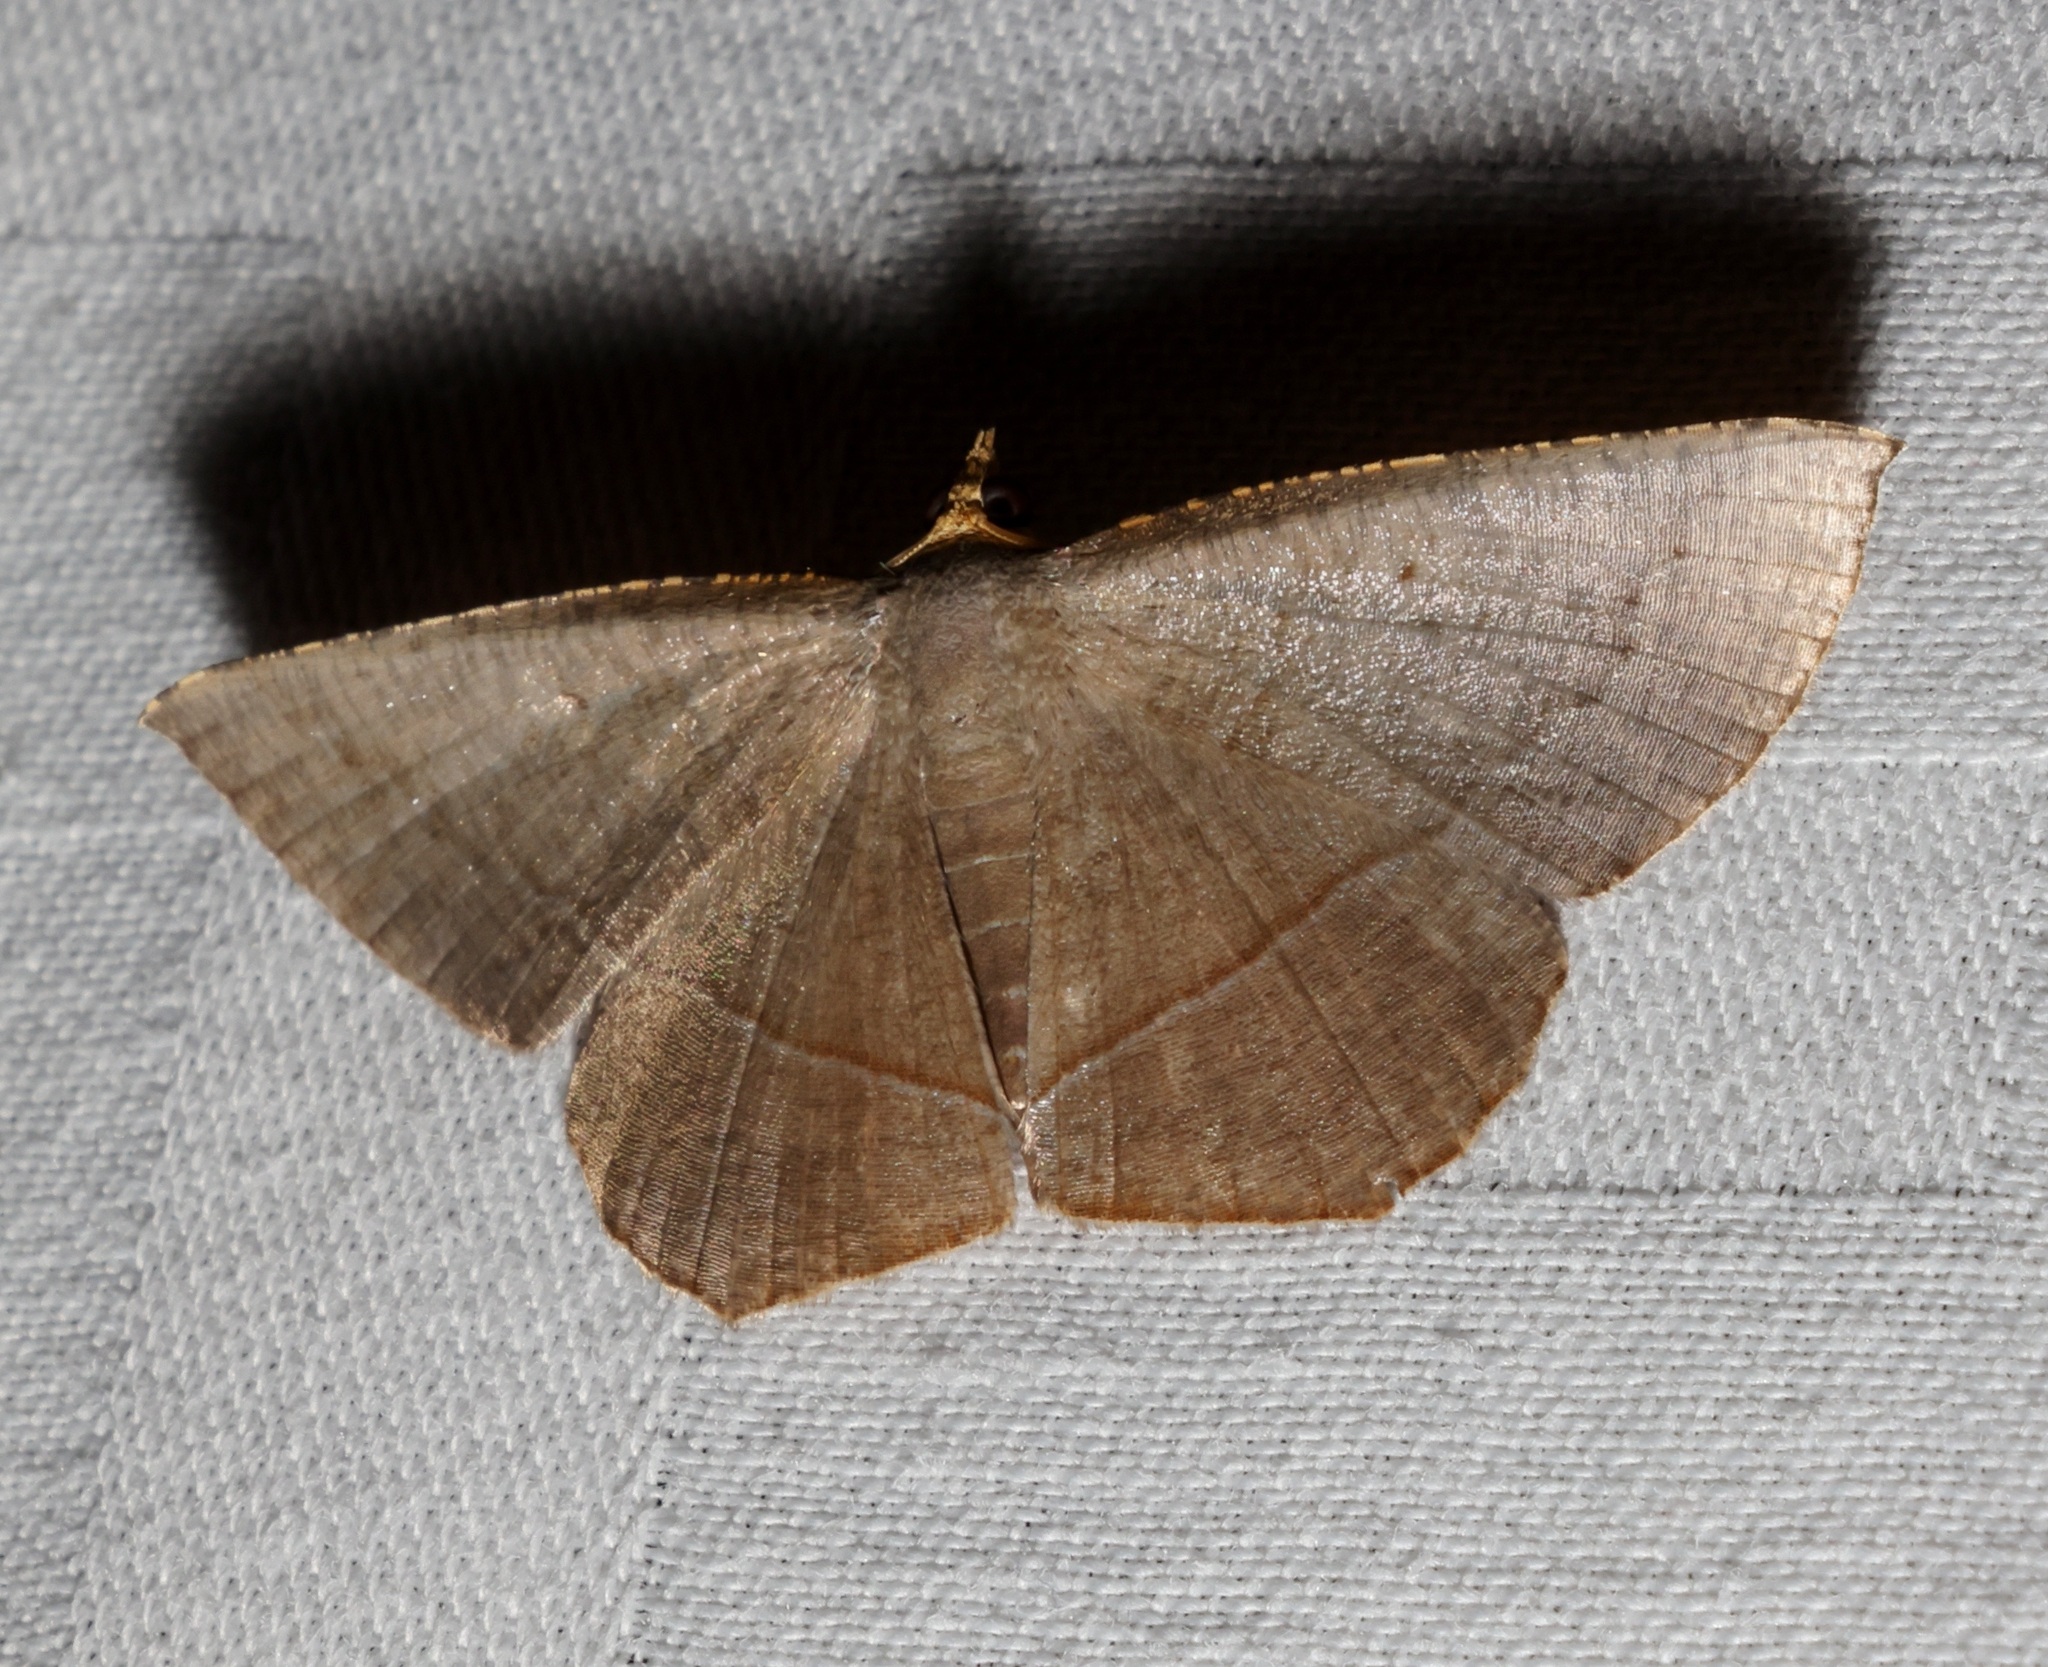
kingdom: Animalia
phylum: Arthropoda
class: Insecta
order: Lepidoptera
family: Geometridae
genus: Plesiomorpha
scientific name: Plesiomorpha flaviceps
